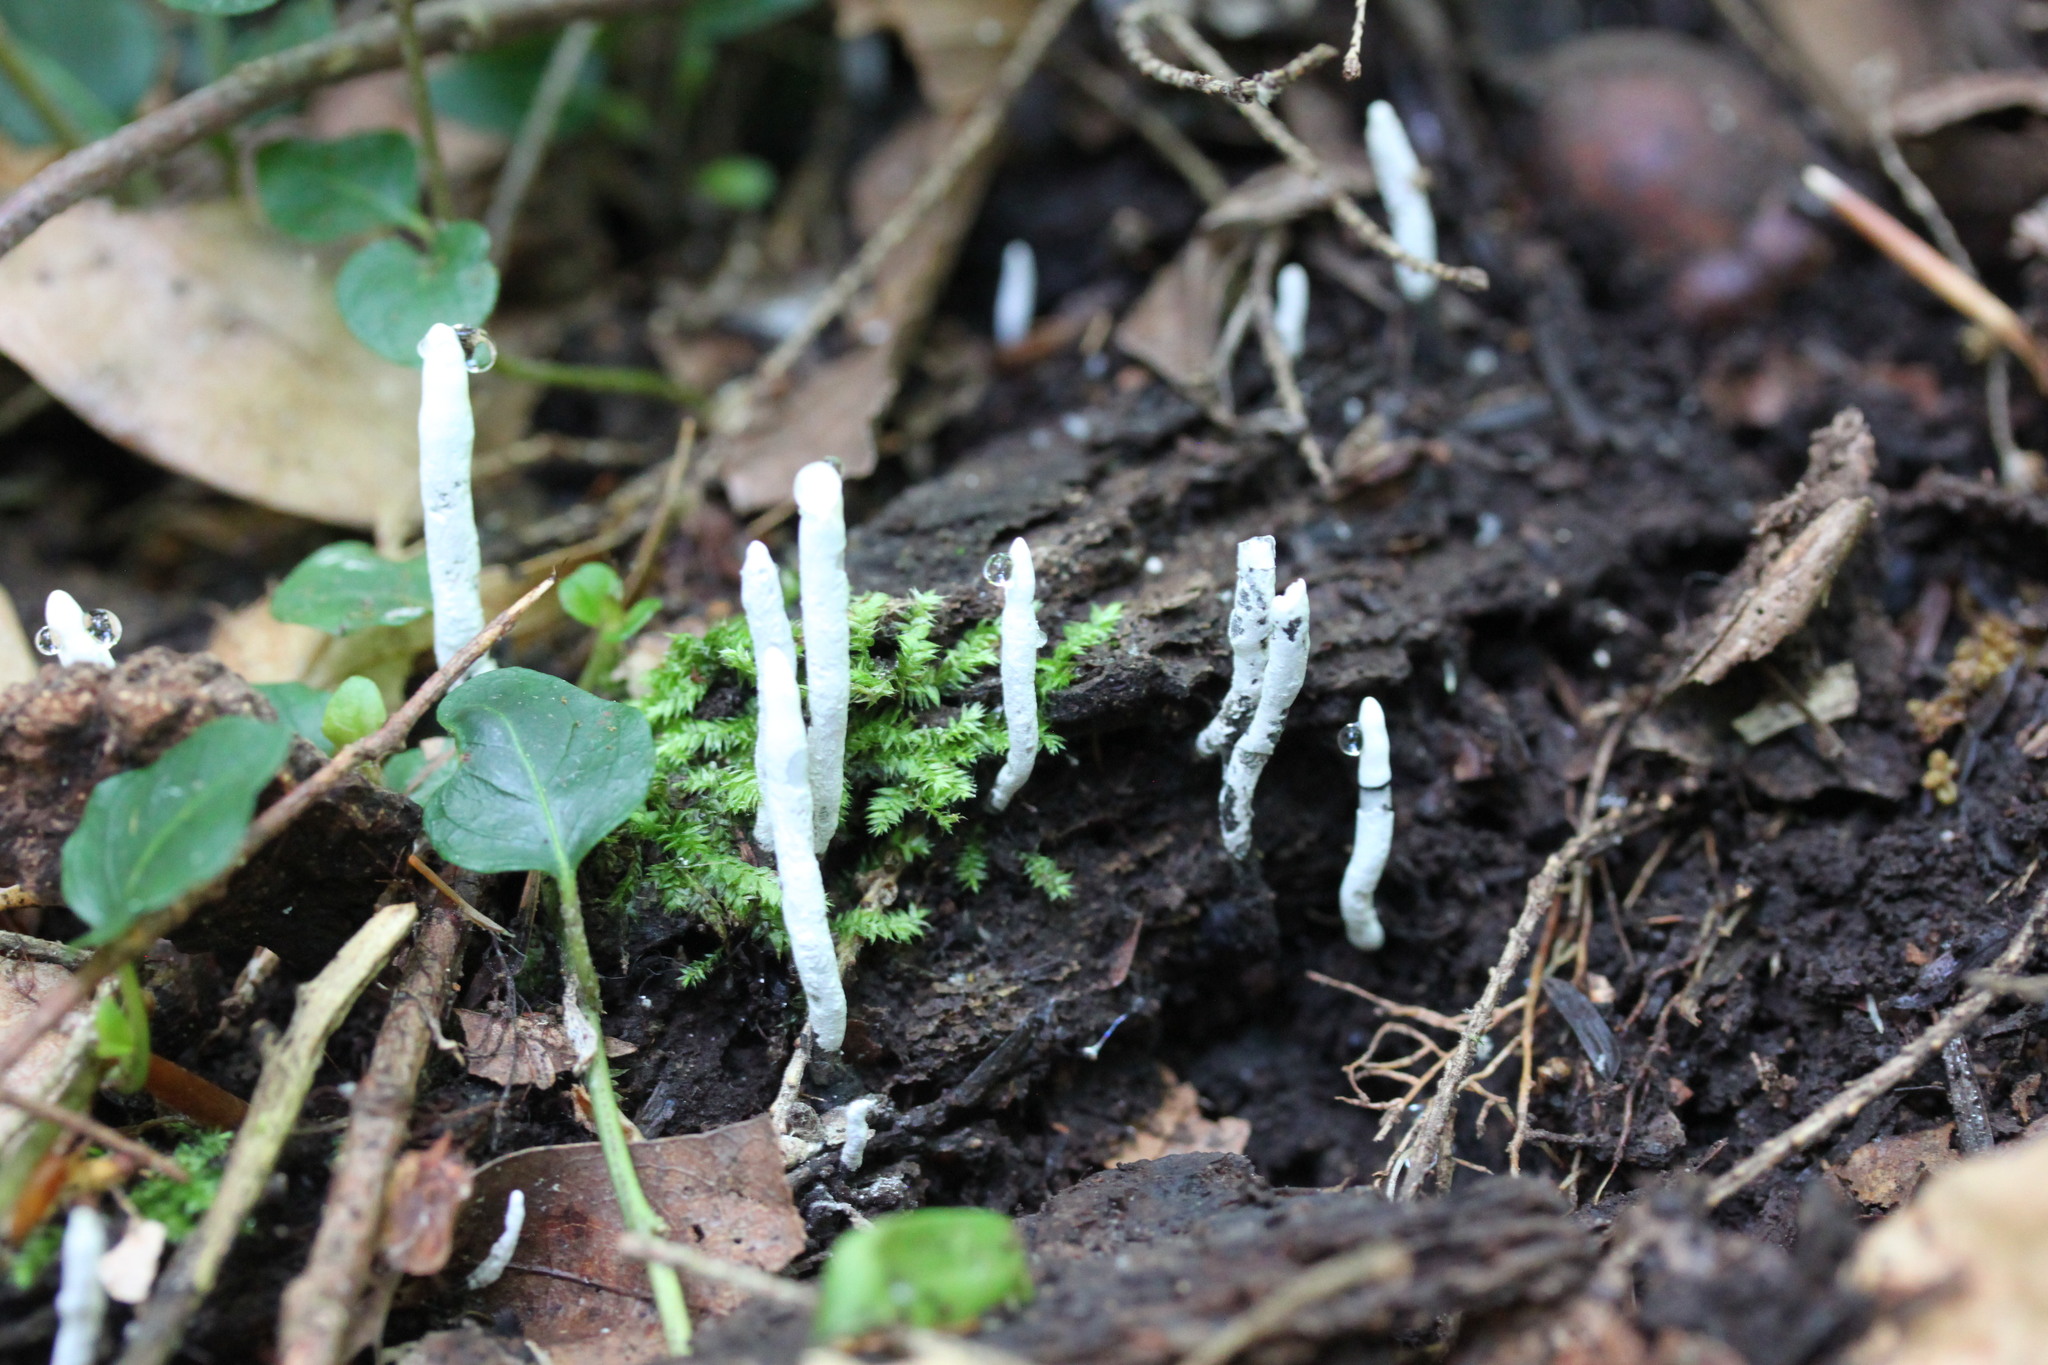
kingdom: Fungi
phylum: Ascomycota
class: Sordariomycetes
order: Xylariales
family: Xylariaceae
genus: Xylaria
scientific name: Xylaria hypoxylon
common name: Candle-snuff fungus
